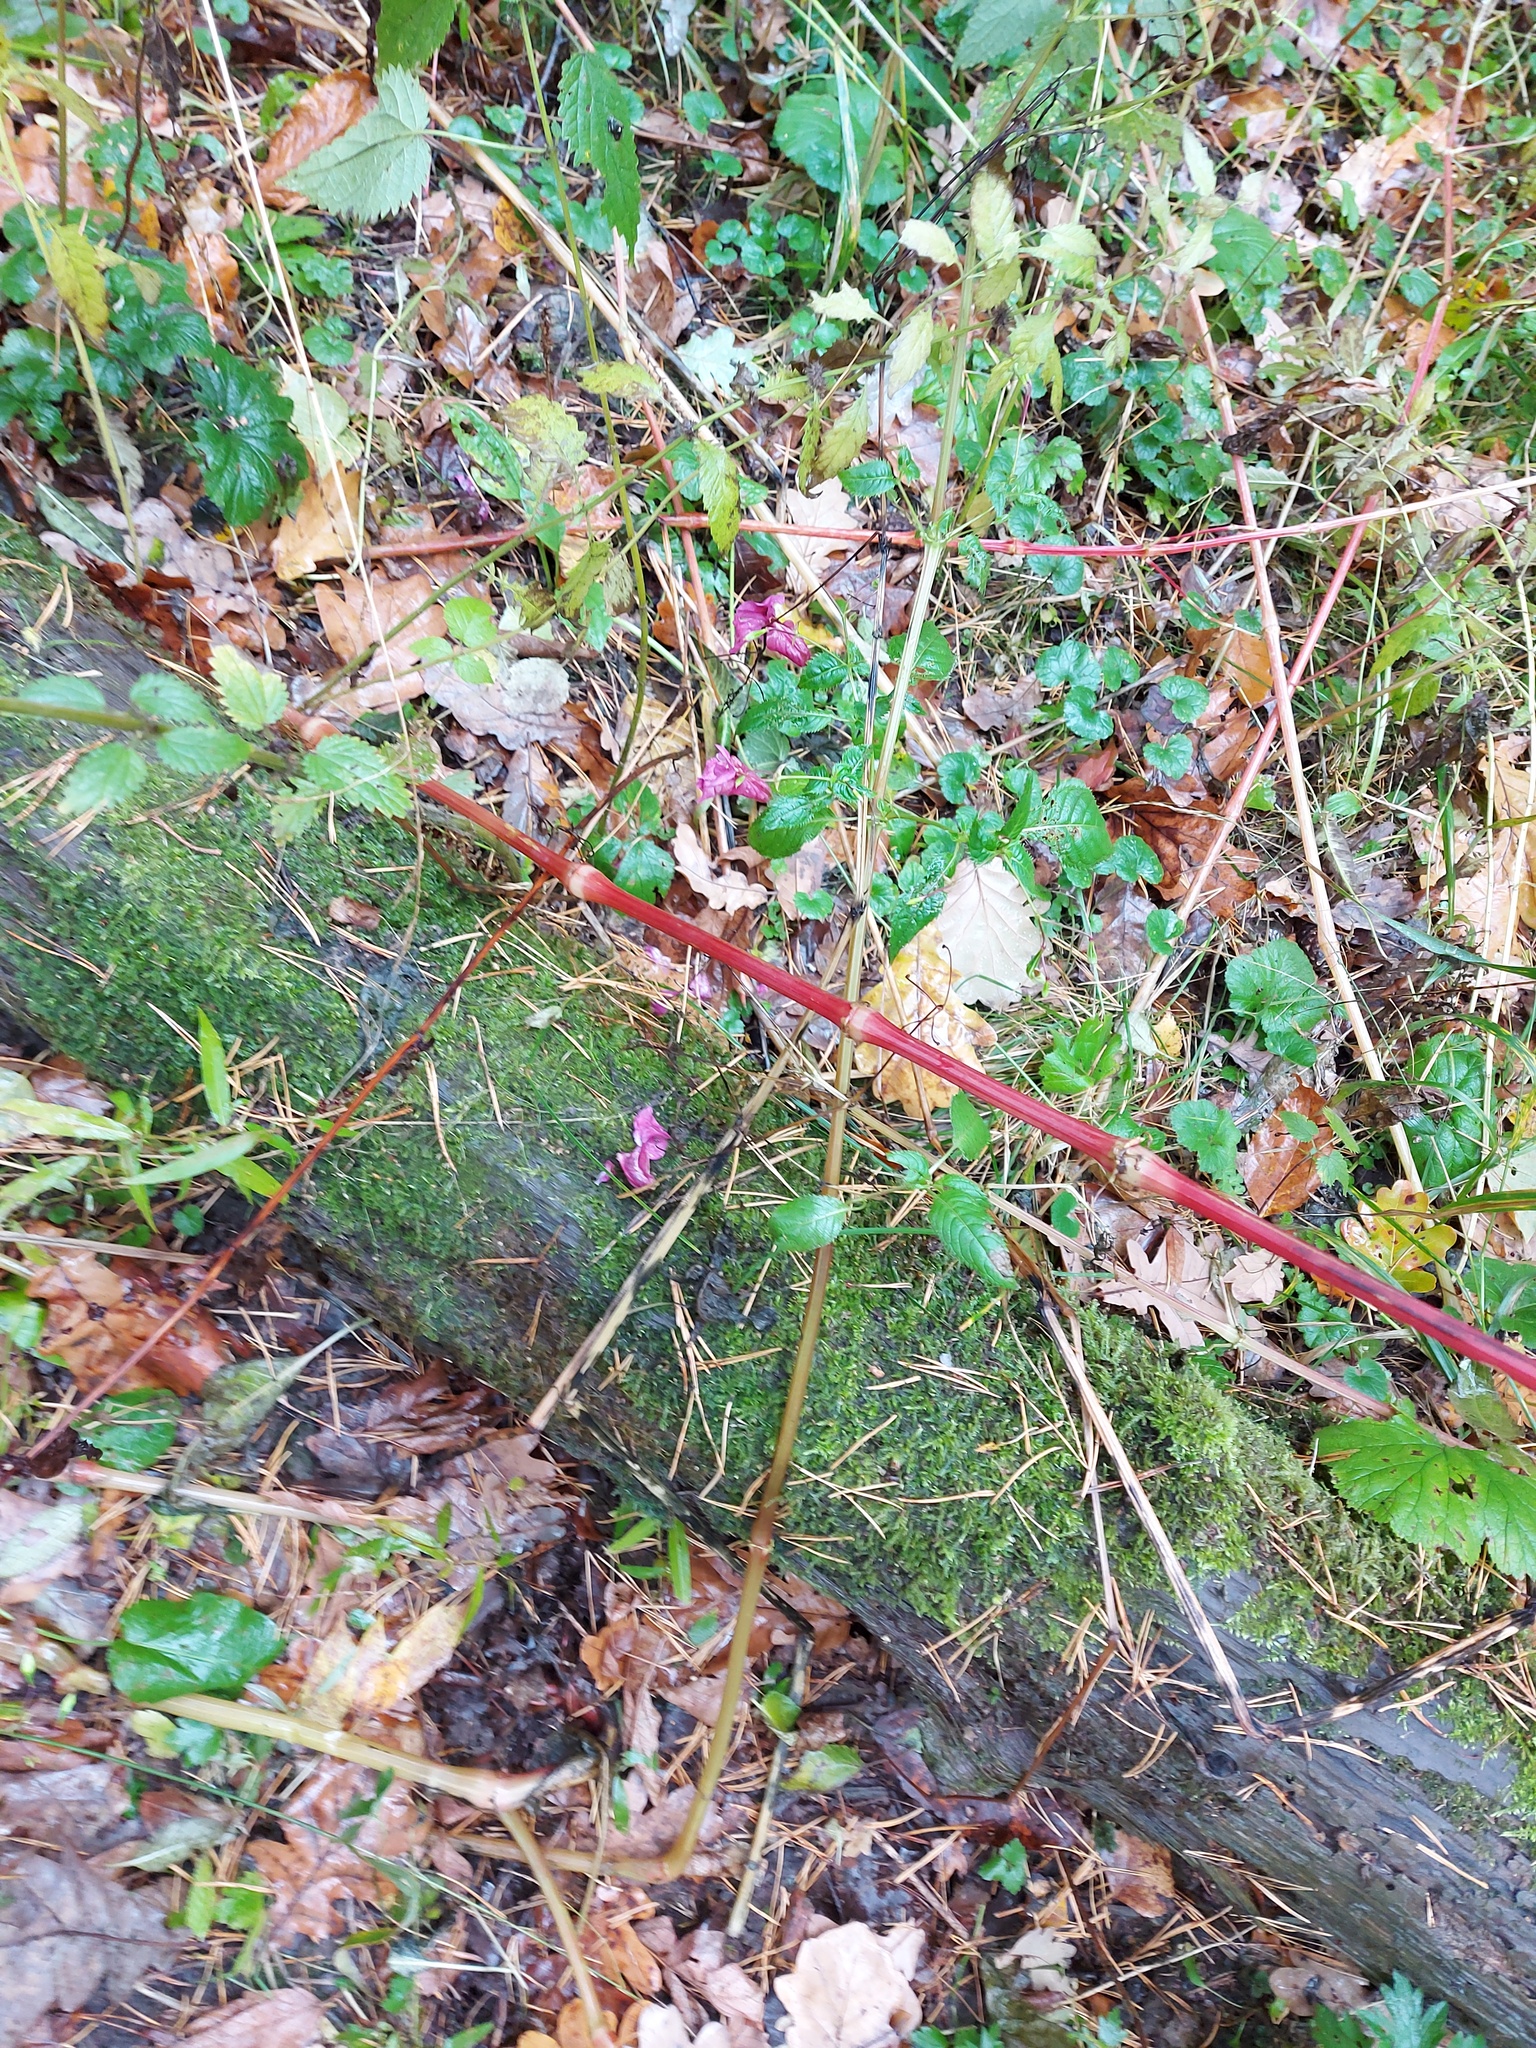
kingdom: Plantae
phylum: Tracheophyta
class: Magnoliopsida
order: Ericales
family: Balsaminaceae
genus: Impatiens
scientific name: Impatiens glandulifera
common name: Himalayan balsam
